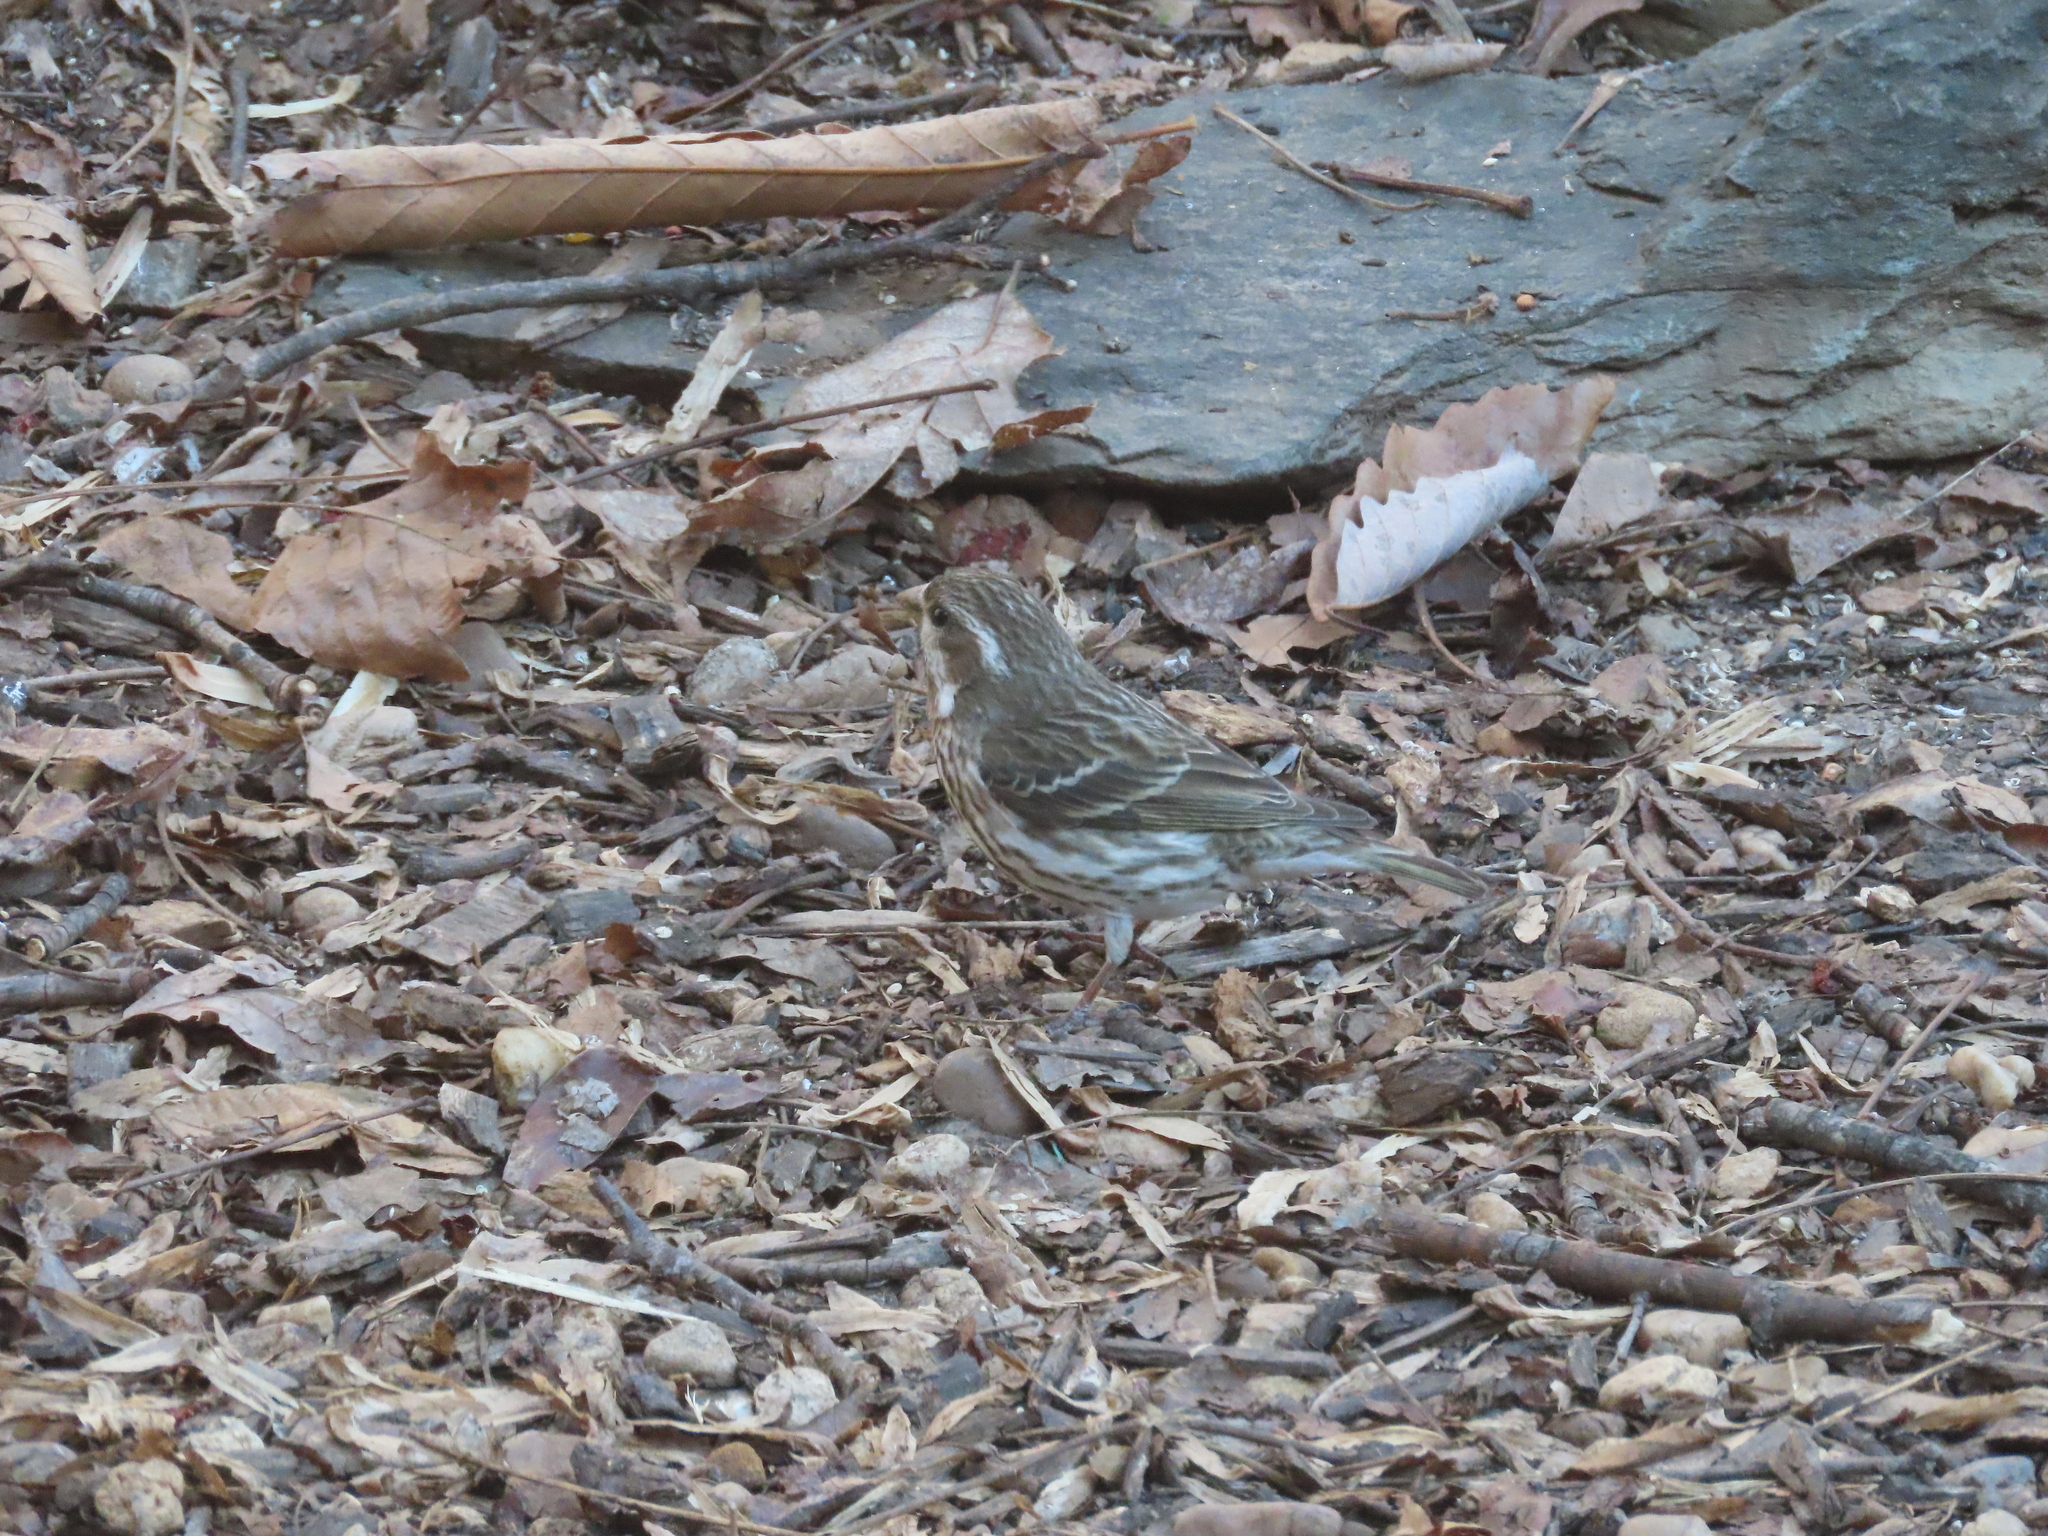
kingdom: Animalia
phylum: Chordata
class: Aves
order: Passeriformes
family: Fringillidae
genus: Haemorhous
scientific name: Haemorhous purpureus
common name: Purple finch
